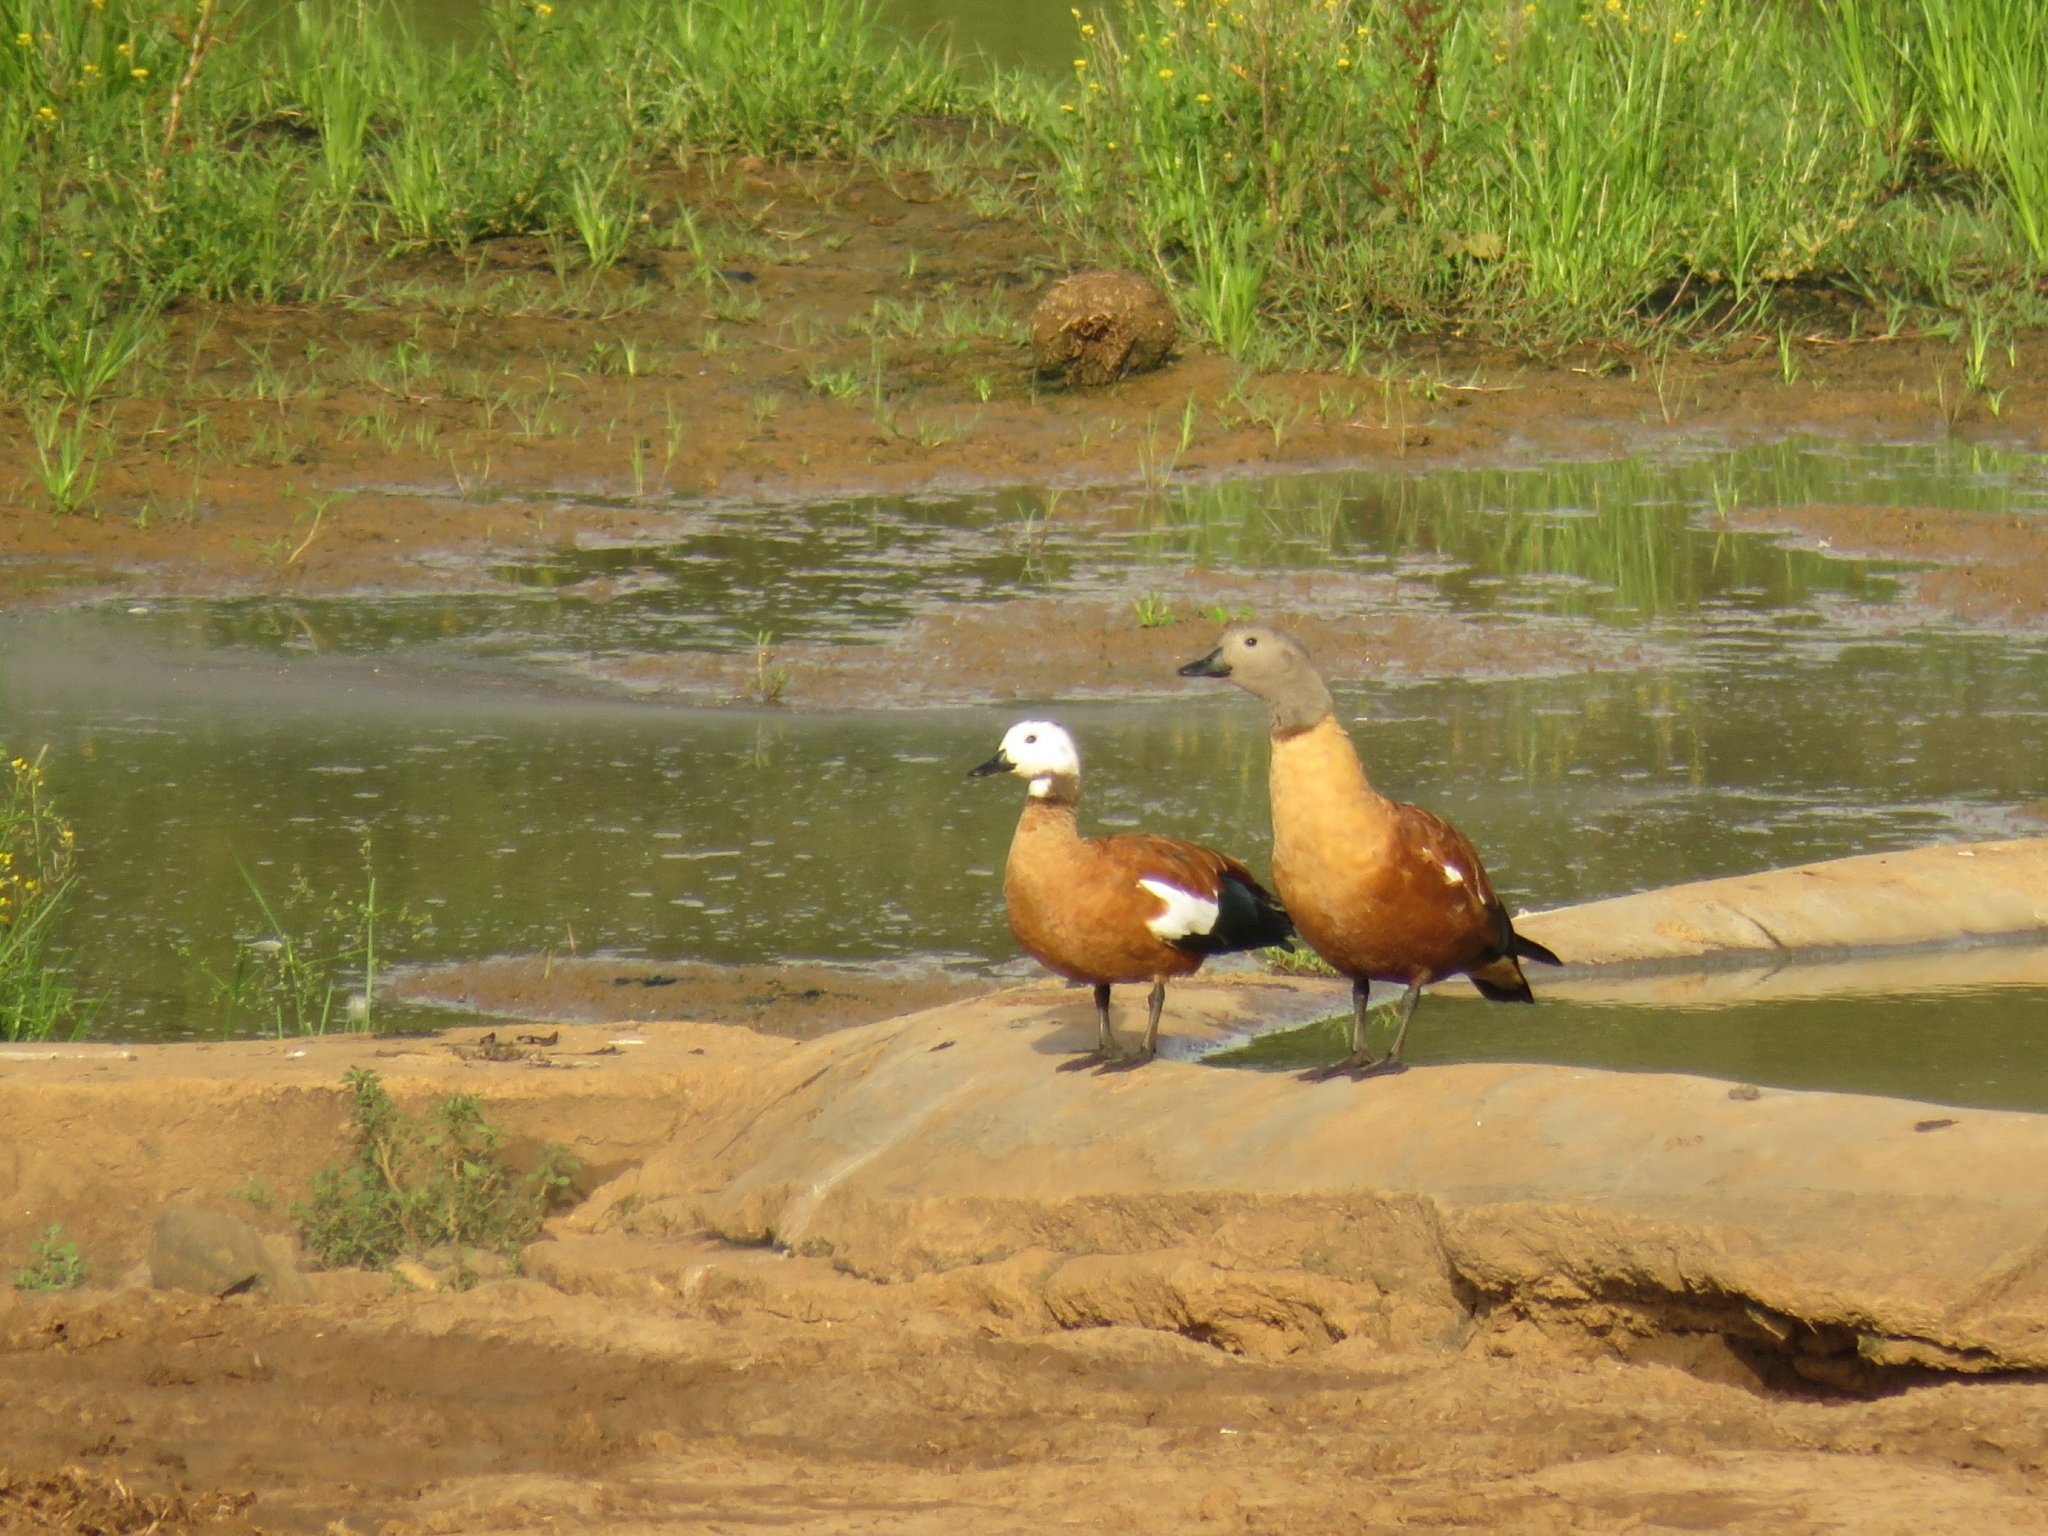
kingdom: Animalia
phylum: Chordata
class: Aves
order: Anseriformes
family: Anatidae
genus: Tadorna
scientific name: Tadorna cana
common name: South african shelduck
